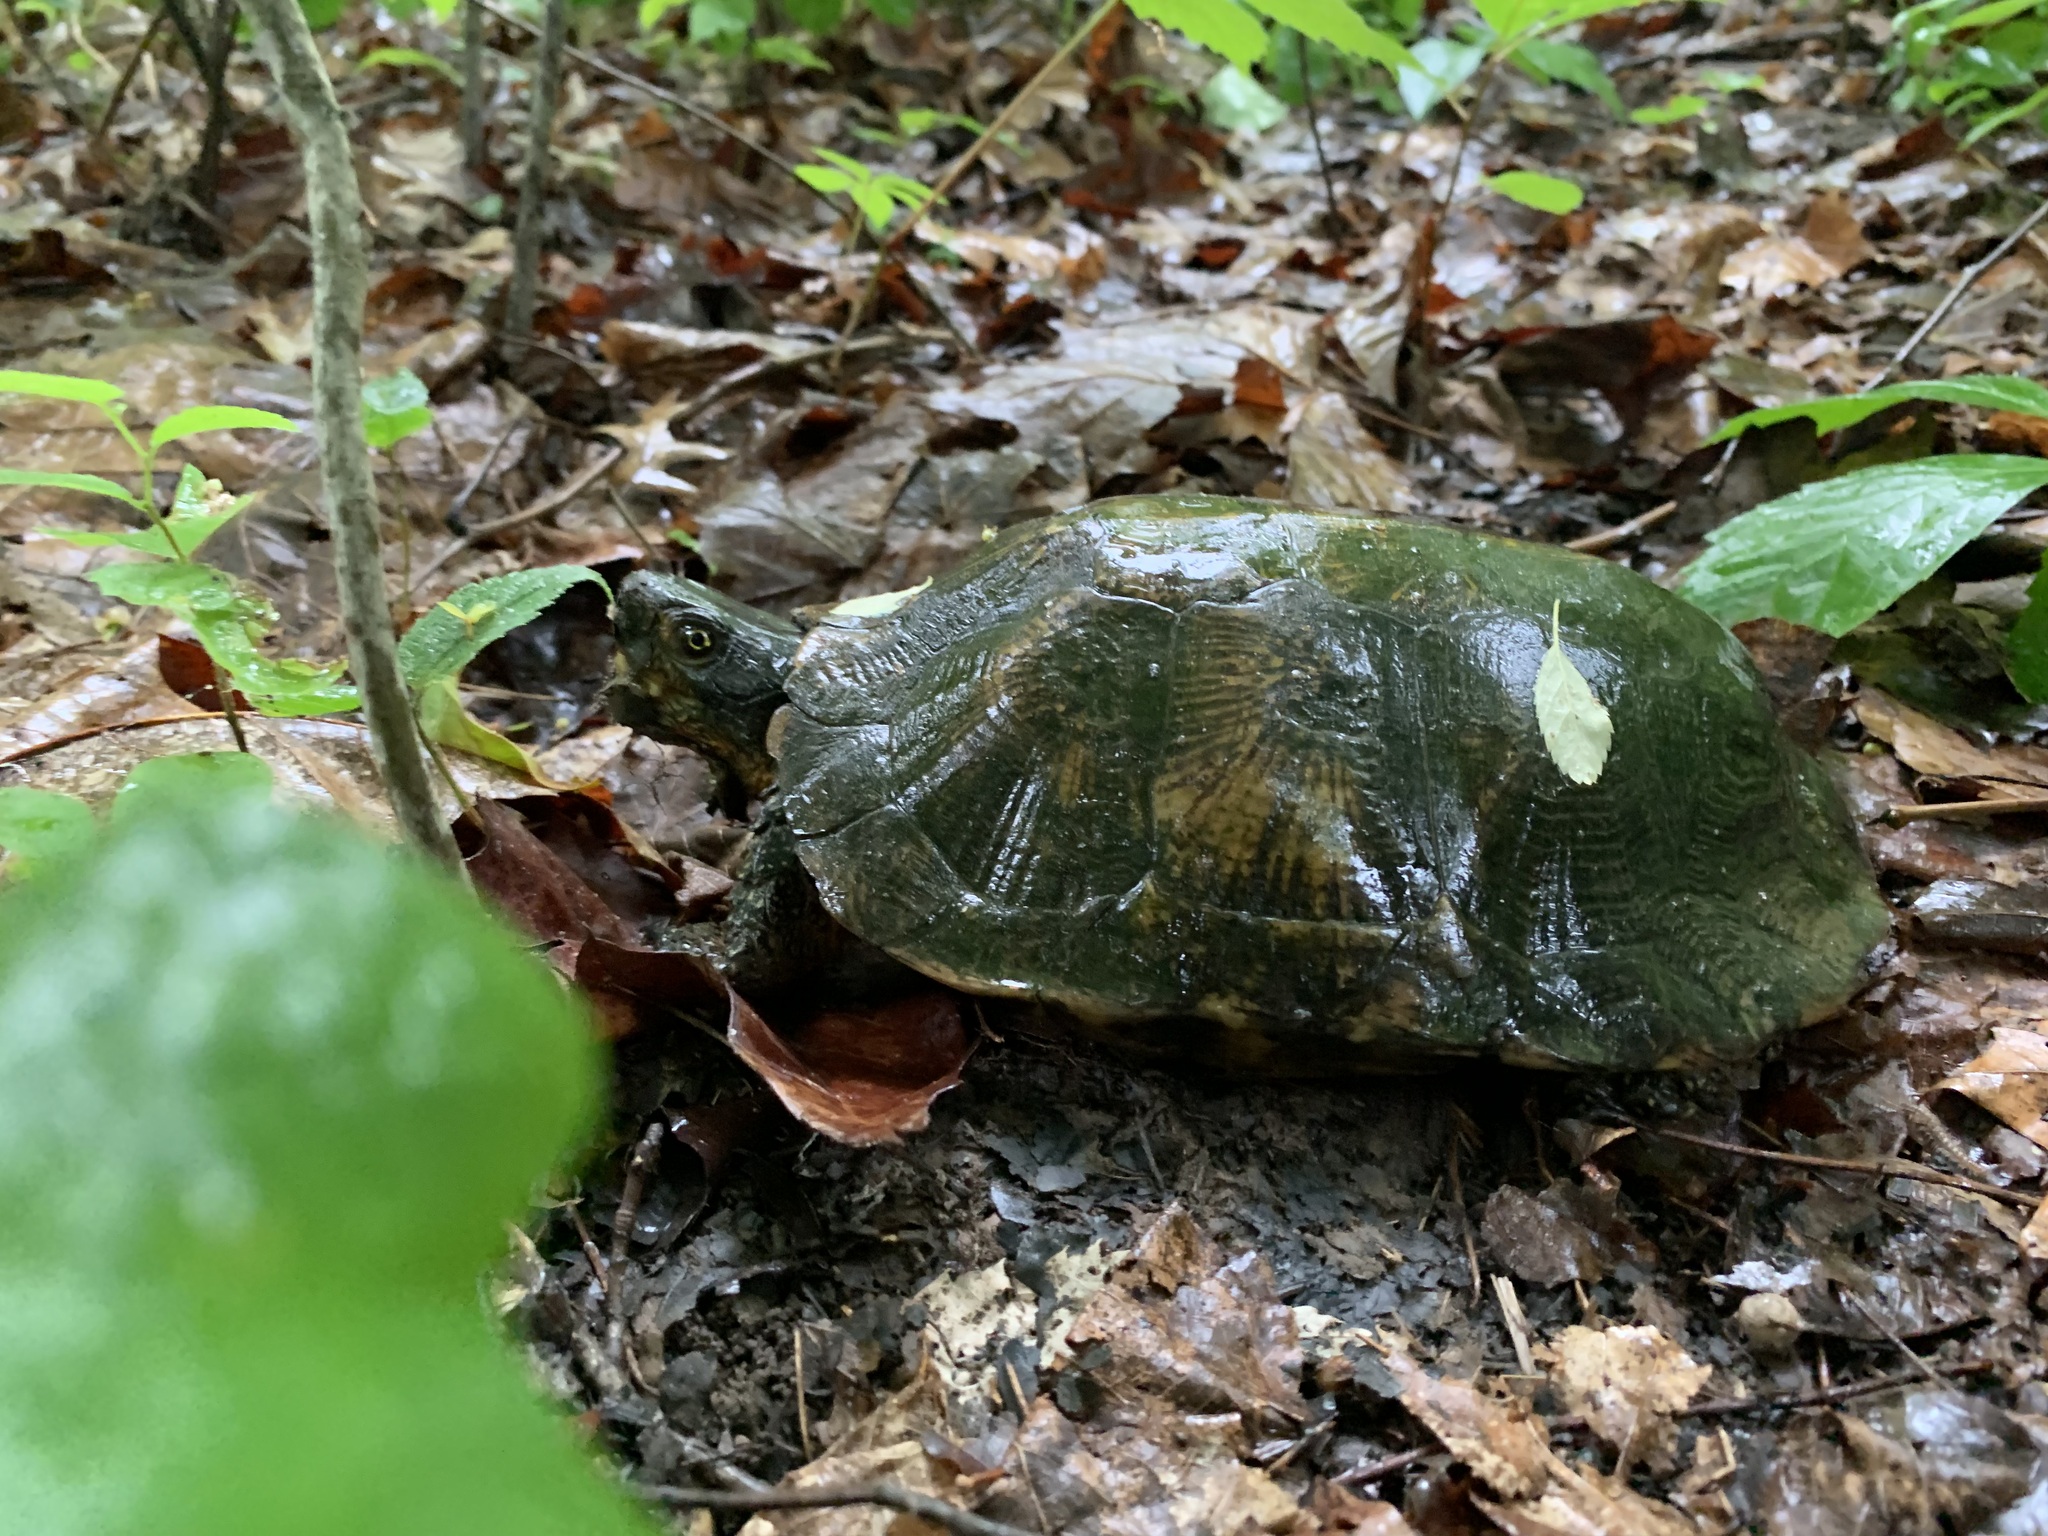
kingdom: Animalia
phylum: Chordata
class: Testudines
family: Emydidae
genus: Glyptemys
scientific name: Glyptemys insculpta
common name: Wood turtle
